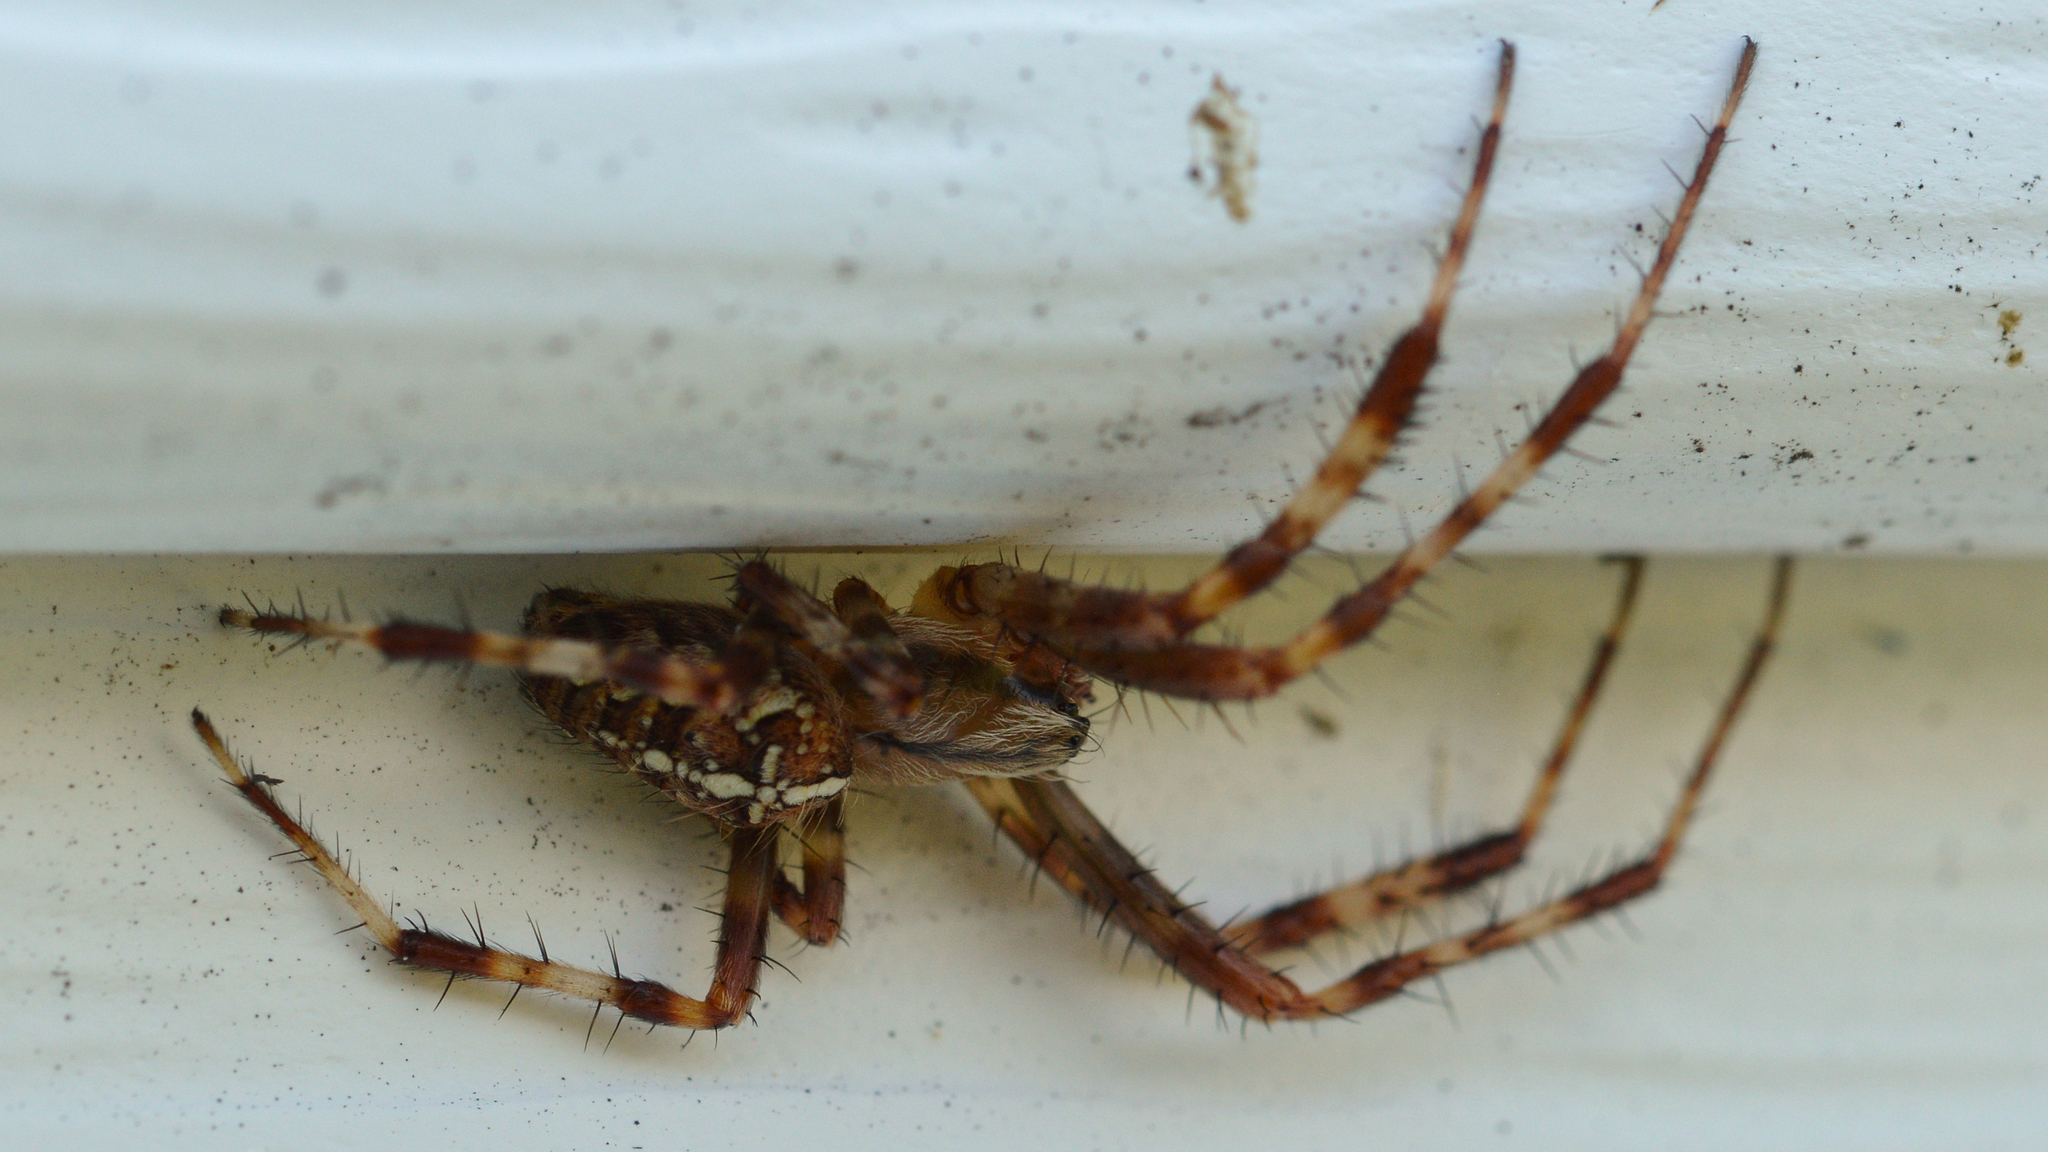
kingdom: Animalia
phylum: Arthropoda
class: Arachnida
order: Araneae
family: Araneidae
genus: Araneus
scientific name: Araneus diadematus
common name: Cross orbweaver
